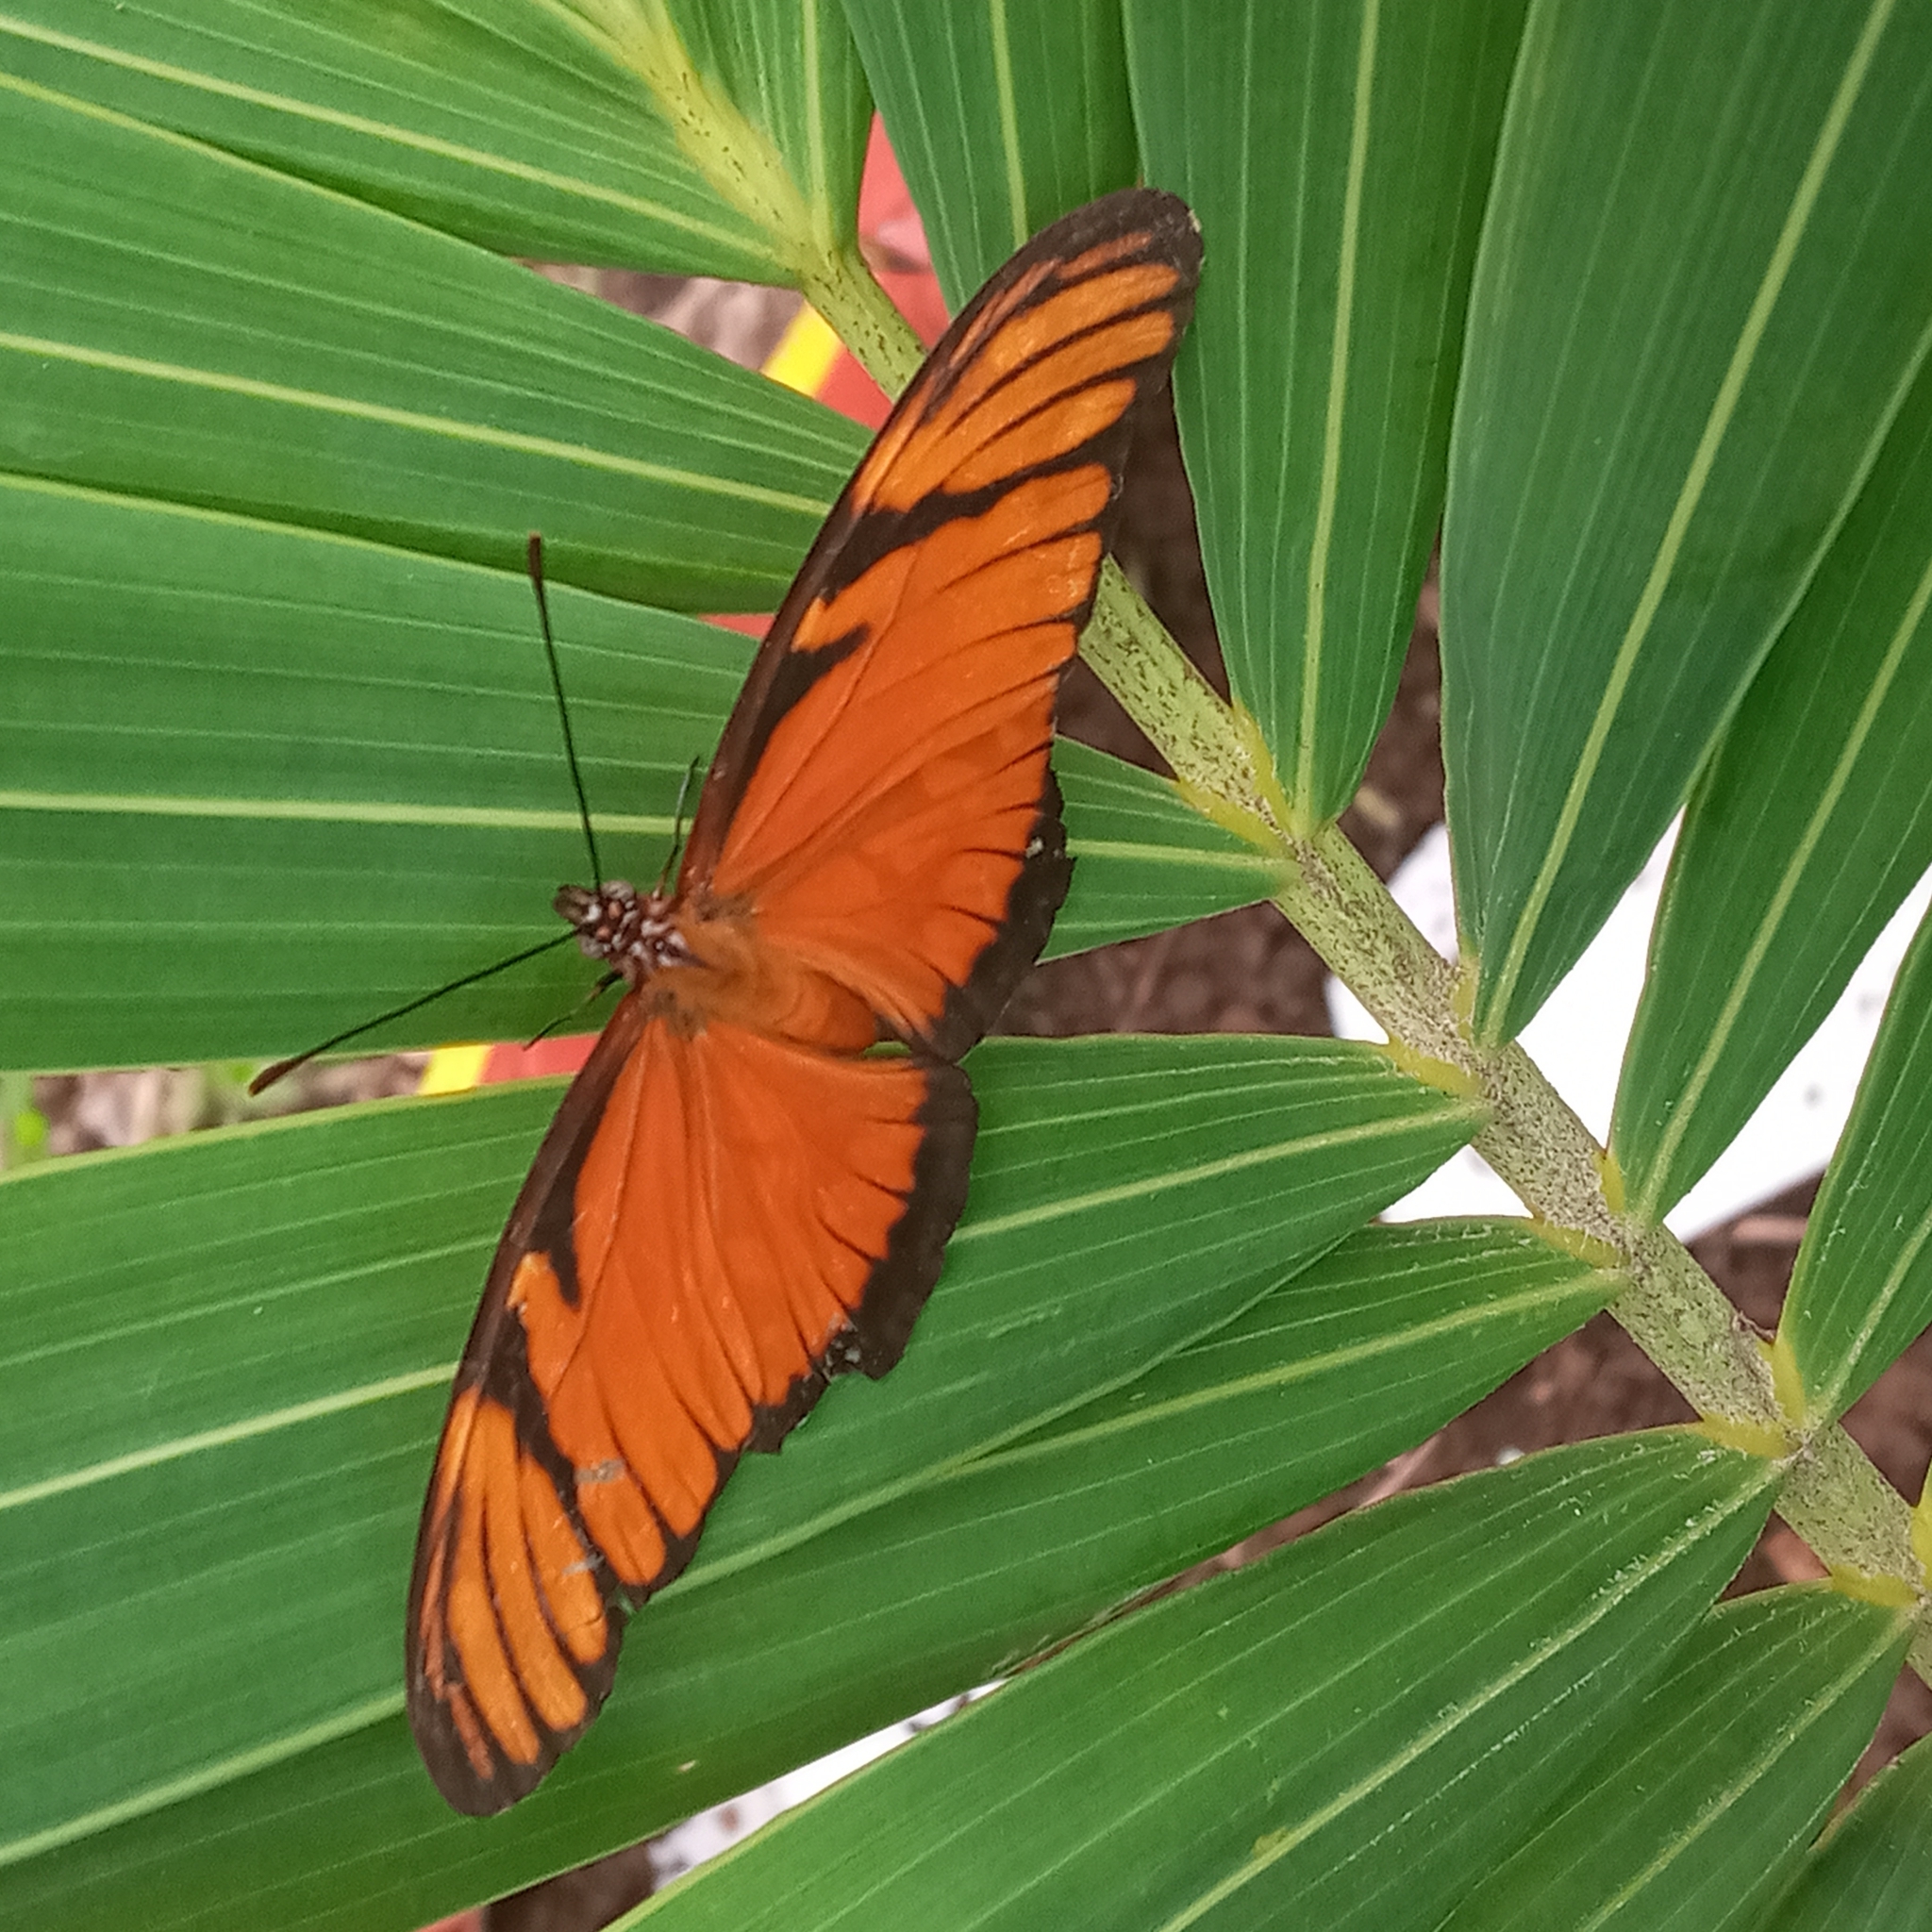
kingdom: Animalia
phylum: Arthropoda
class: Insecta
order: Lepidoptera
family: Nymphalidae
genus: Dione
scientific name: Dione juno
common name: Juno silverspot
